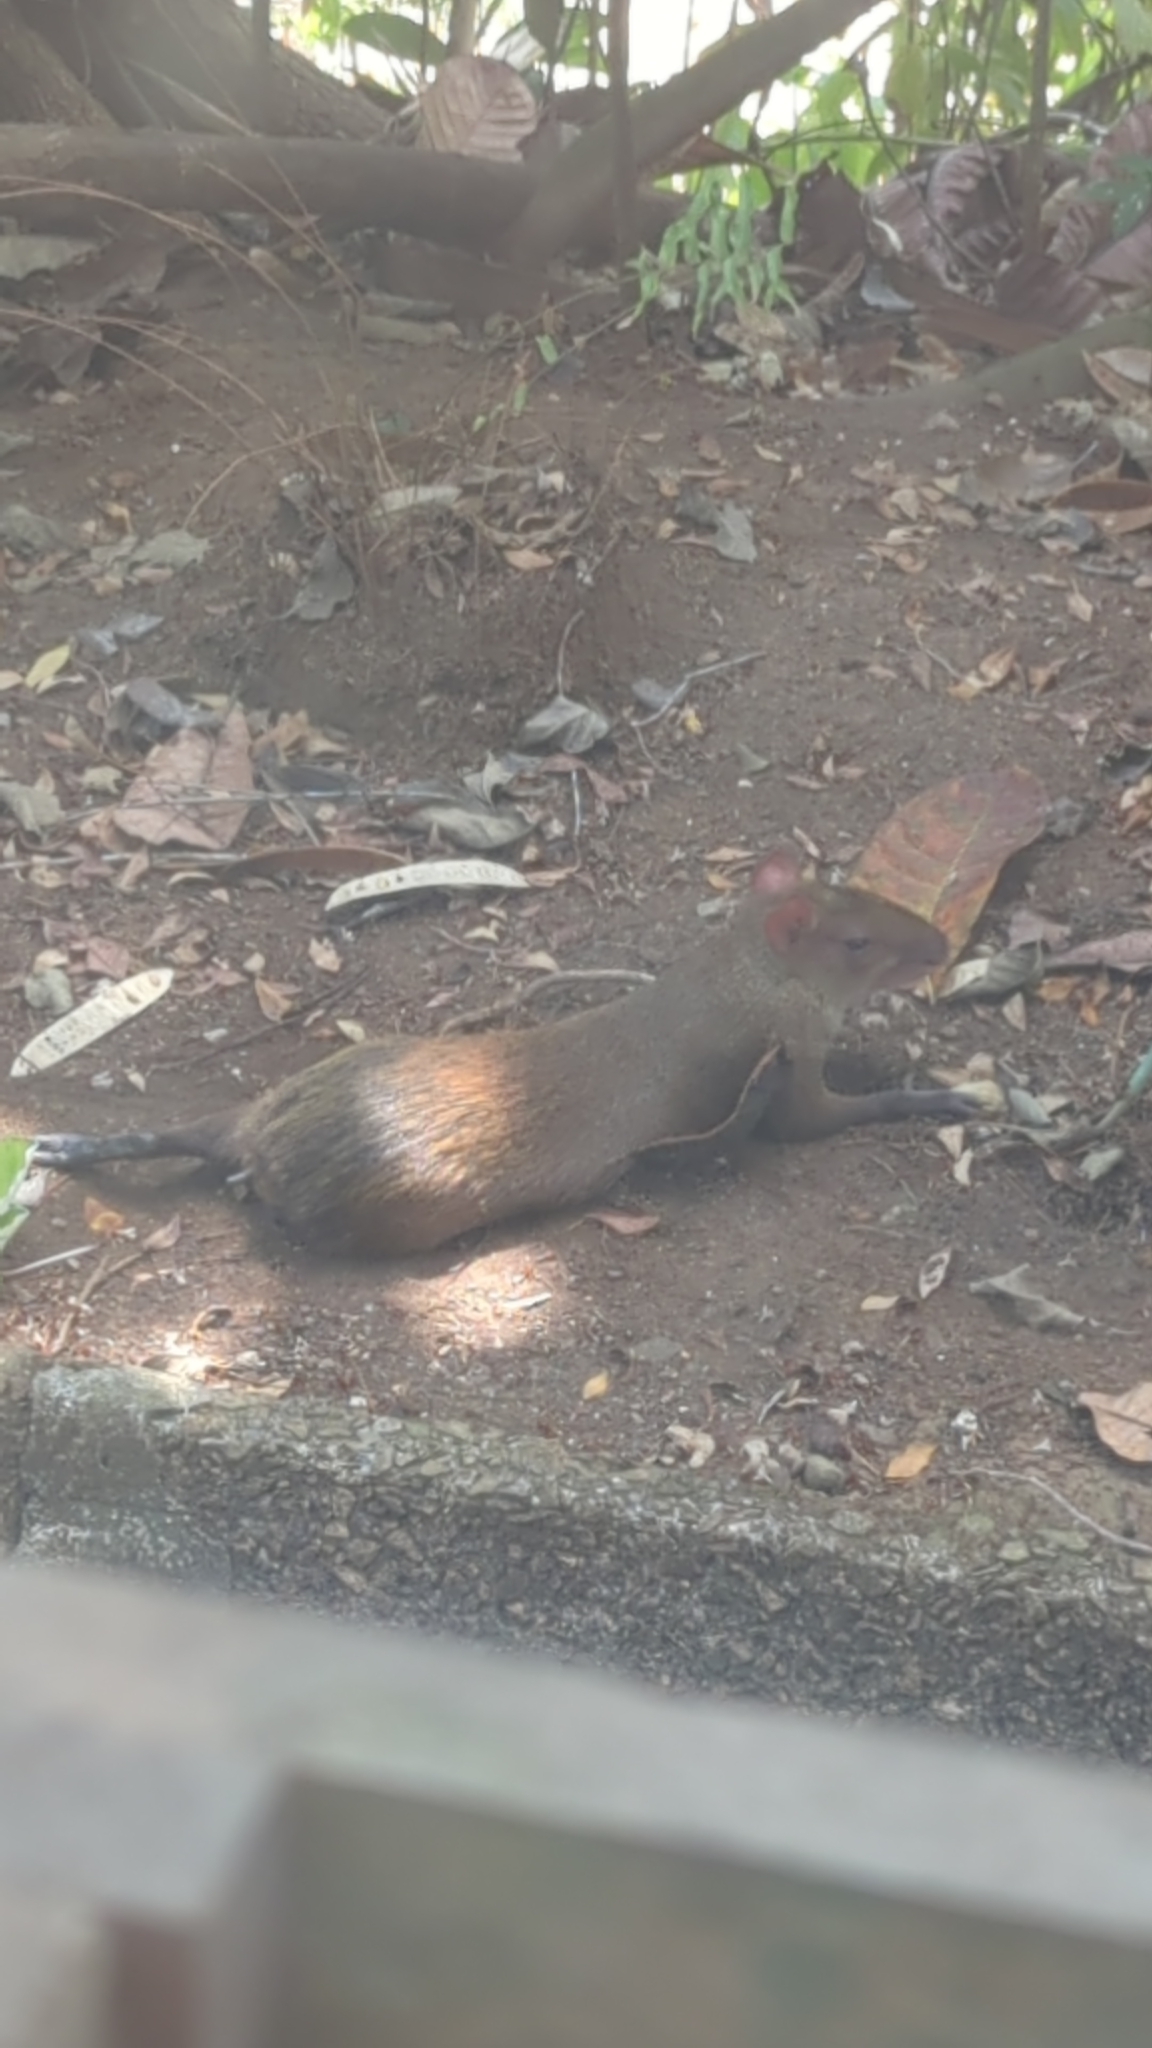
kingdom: Animalia
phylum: Chordata
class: Mammalia
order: Rodentia
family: Dasyproctidae
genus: Dasyprocta
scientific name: Dasyprocta punctata
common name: Central american agouti
